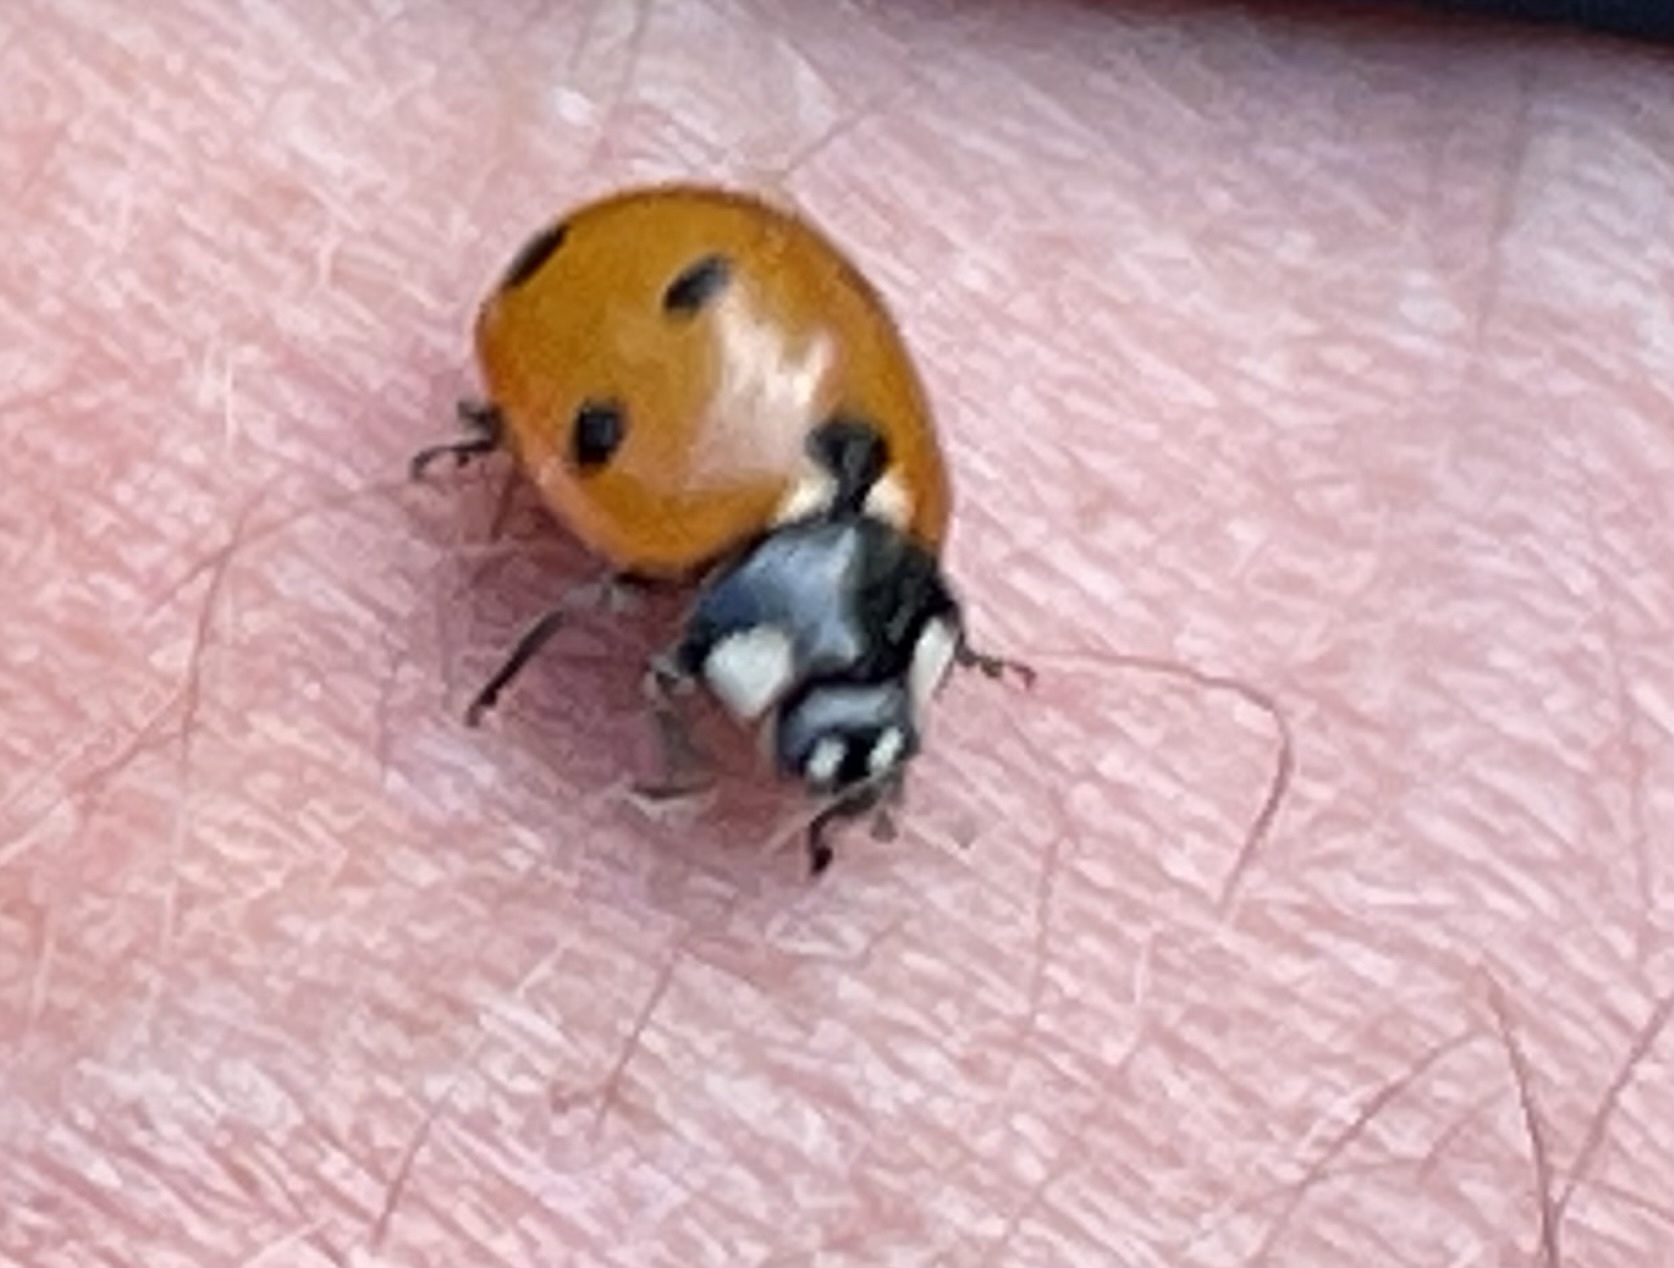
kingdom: Animalia
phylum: Arthropoda
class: Insecta
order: Coleoptera
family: Coccinellidae
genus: Coccinella
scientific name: Coccinella septempunctata
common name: Sevenspotted lady beetle
